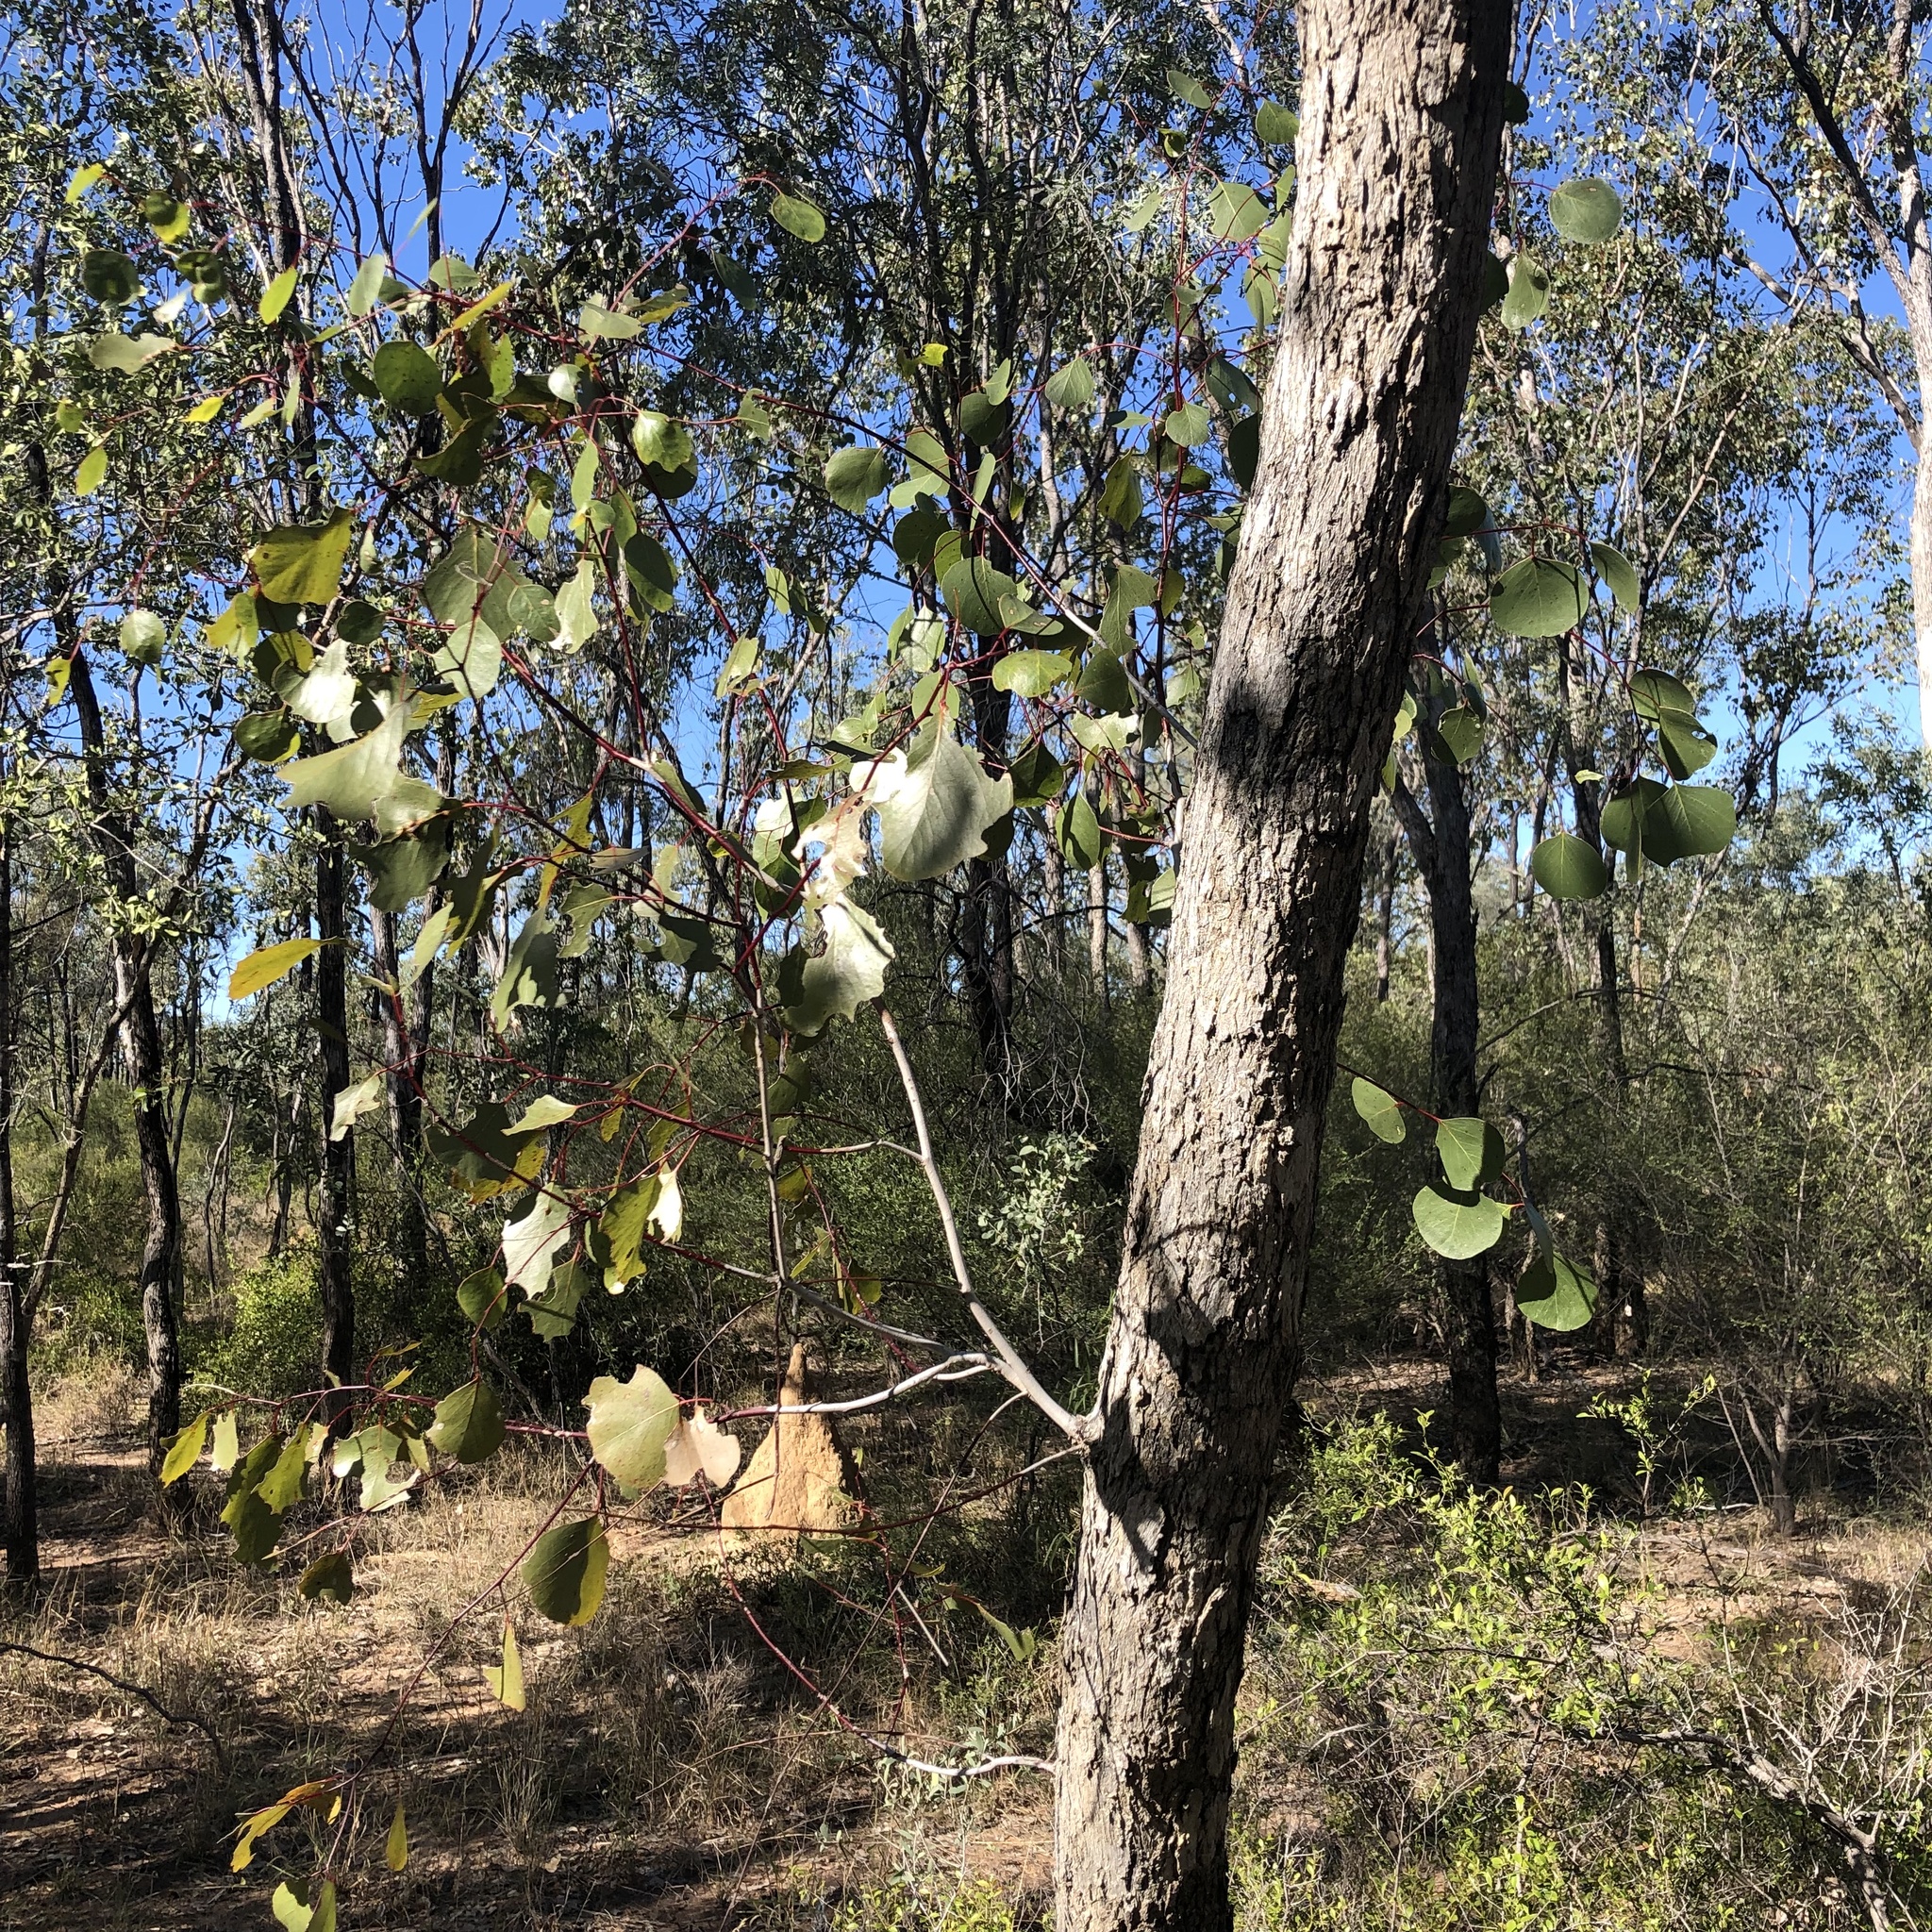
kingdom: Plantae
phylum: Tracheophyta
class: Magnoliopsida
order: Myrtales
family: Myrtaceae
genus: Eucalyptus
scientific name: Eucalyptus populnea
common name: Bimble box
